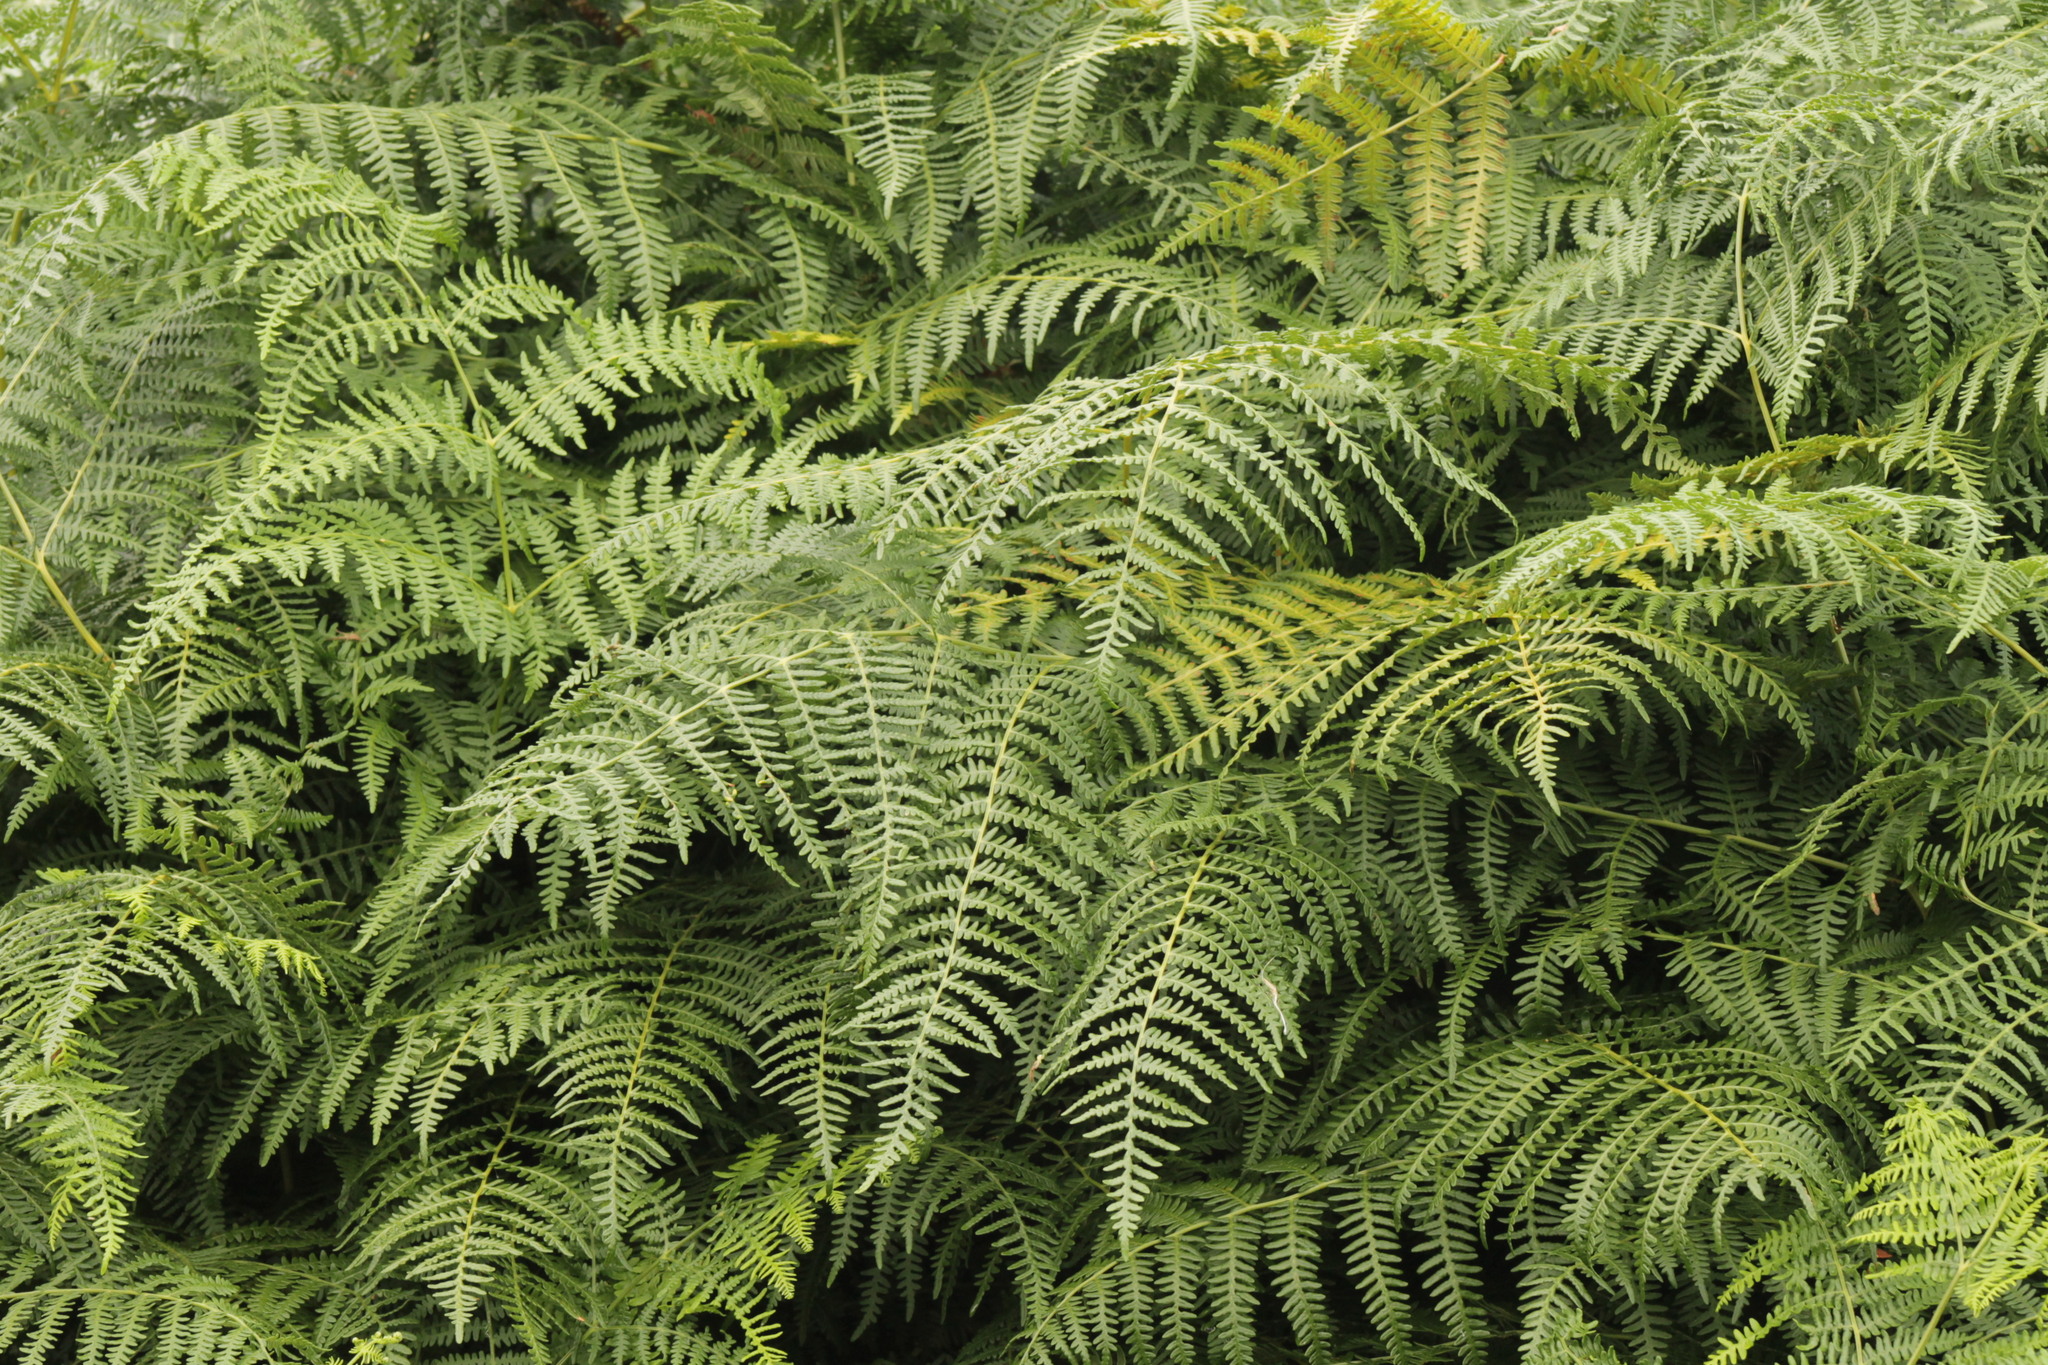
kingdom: Plantae
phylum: Tracheophyta
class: Polypodiopsida
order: Polypodiales
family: Dennstaedtiaceae
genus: Pteridium
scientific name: Pteridium aquilinum
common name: Bracken
